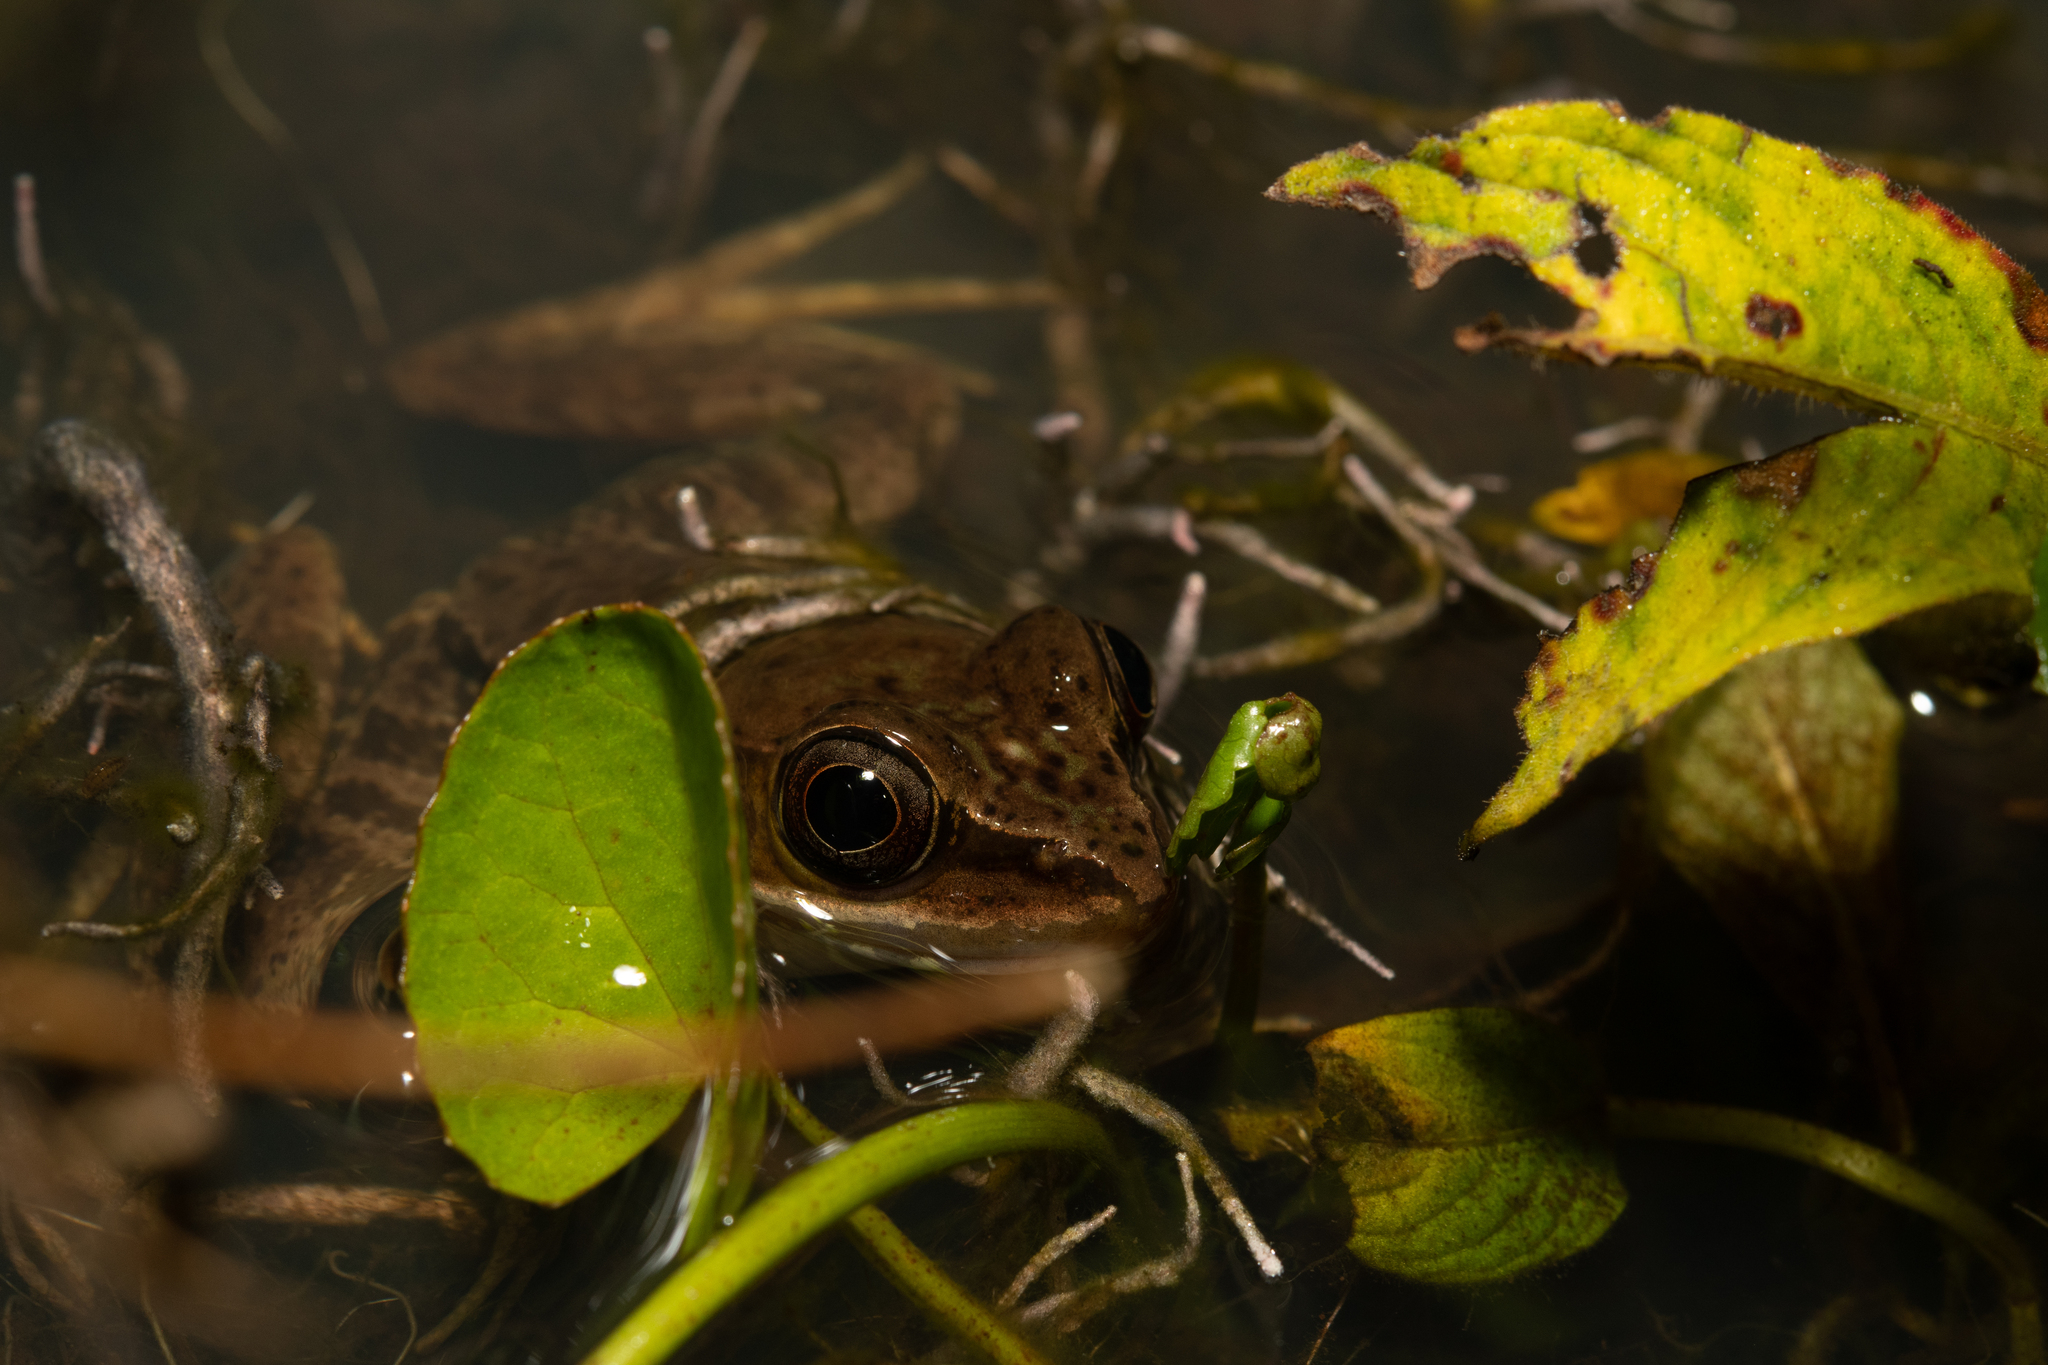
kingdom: Animalia
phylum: Chordata
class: Amphibia
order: Anura
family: Ranidae
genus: Lithobates
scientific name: Lithobates maculatus
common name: Highland frog
